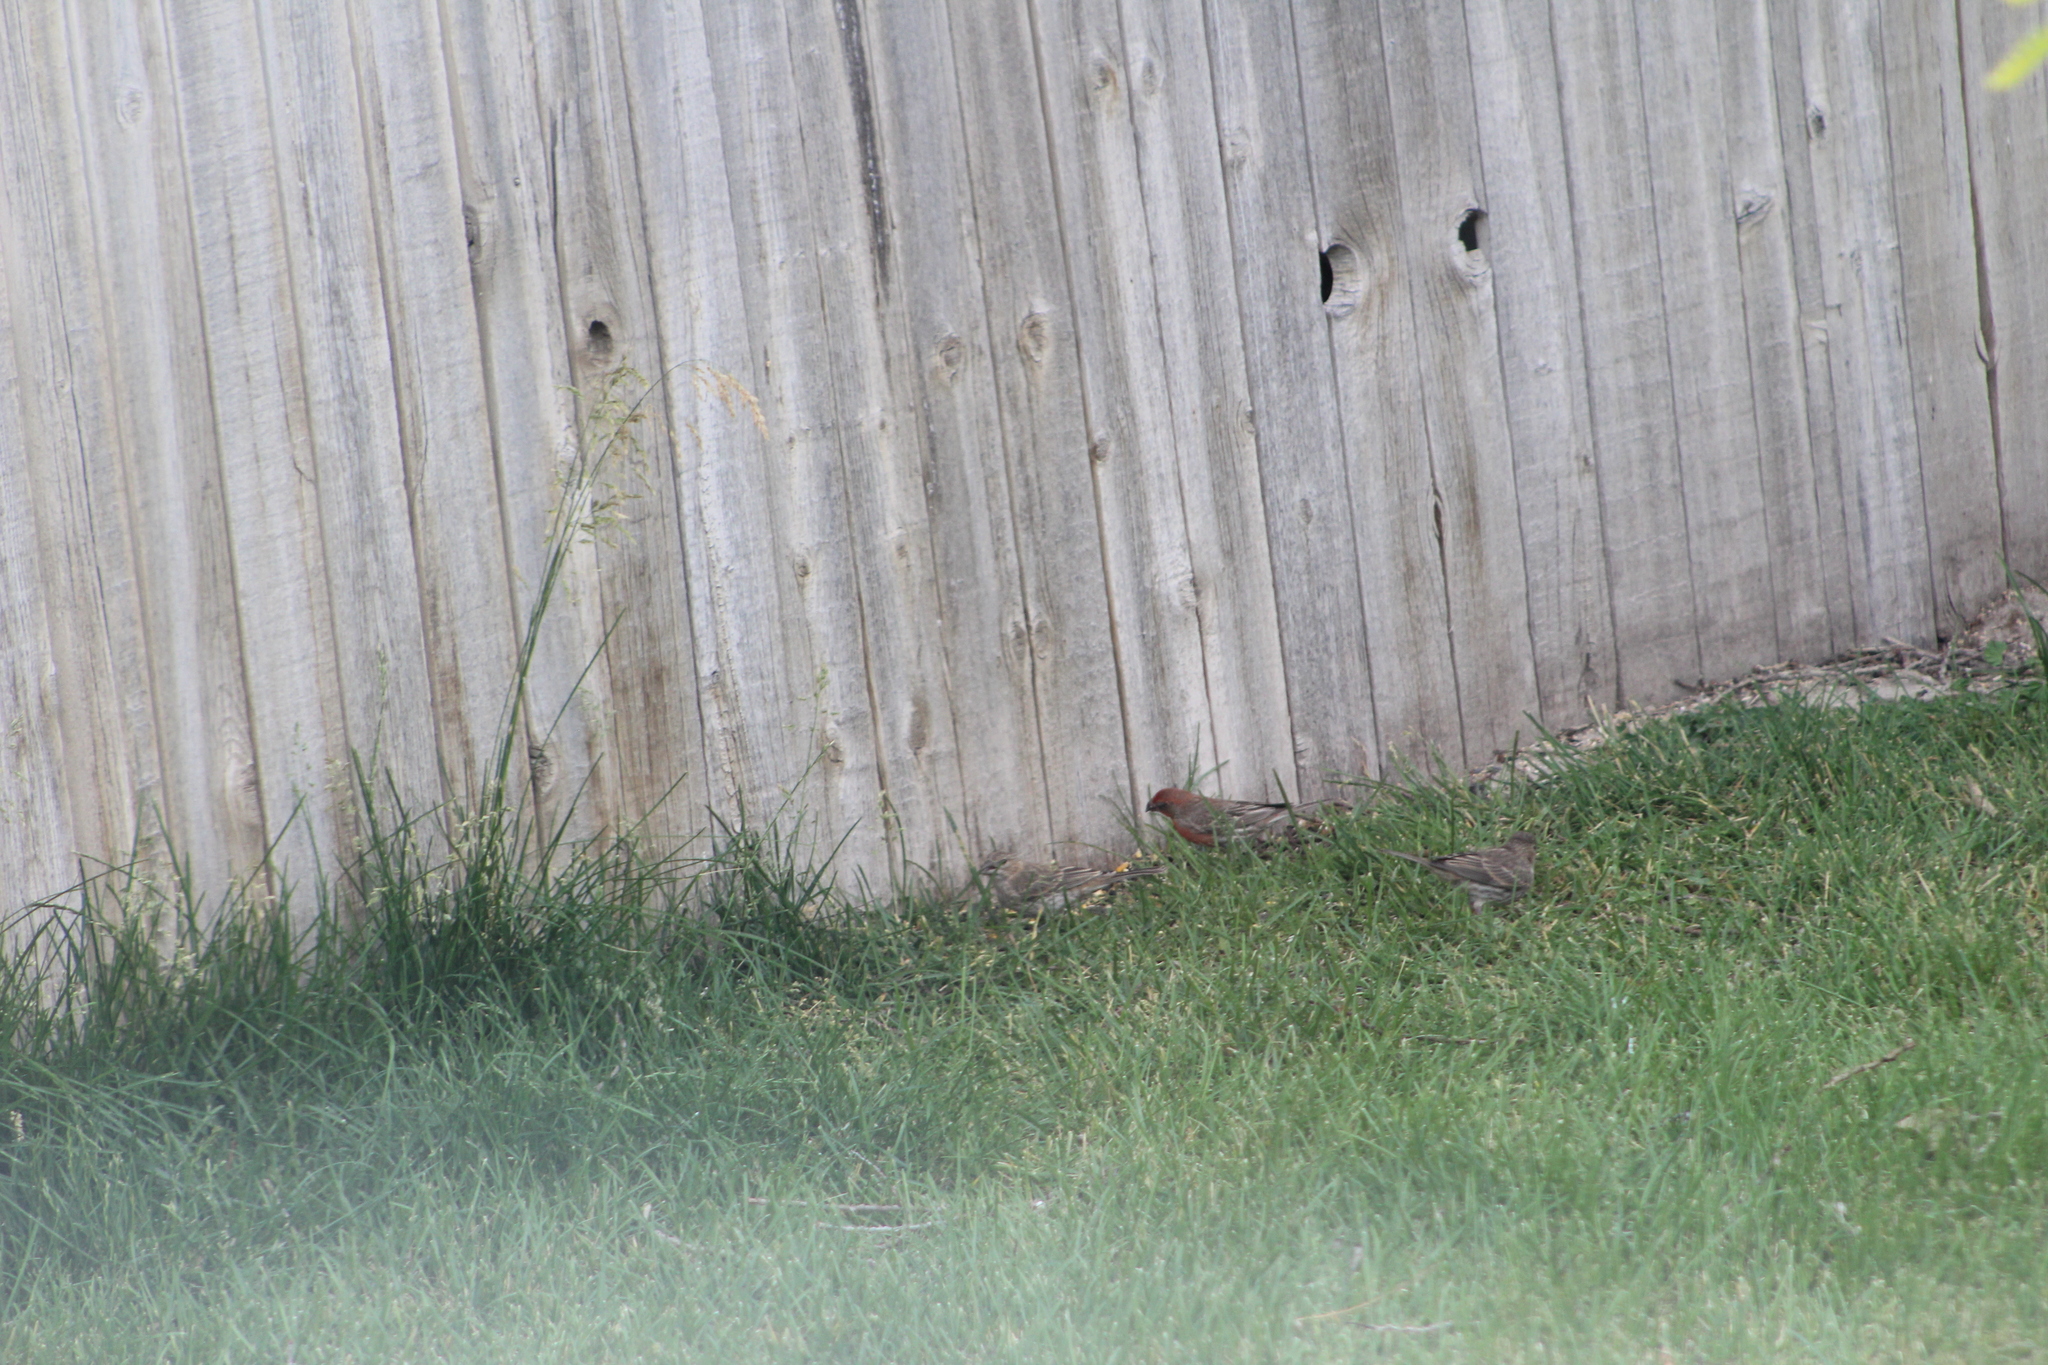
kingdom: Animalia
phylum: Chordata
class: Aves
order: Passeriformes
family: Fringillidae
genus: Haemorhous
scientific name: Haemorhous mexicanus
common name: House finch
